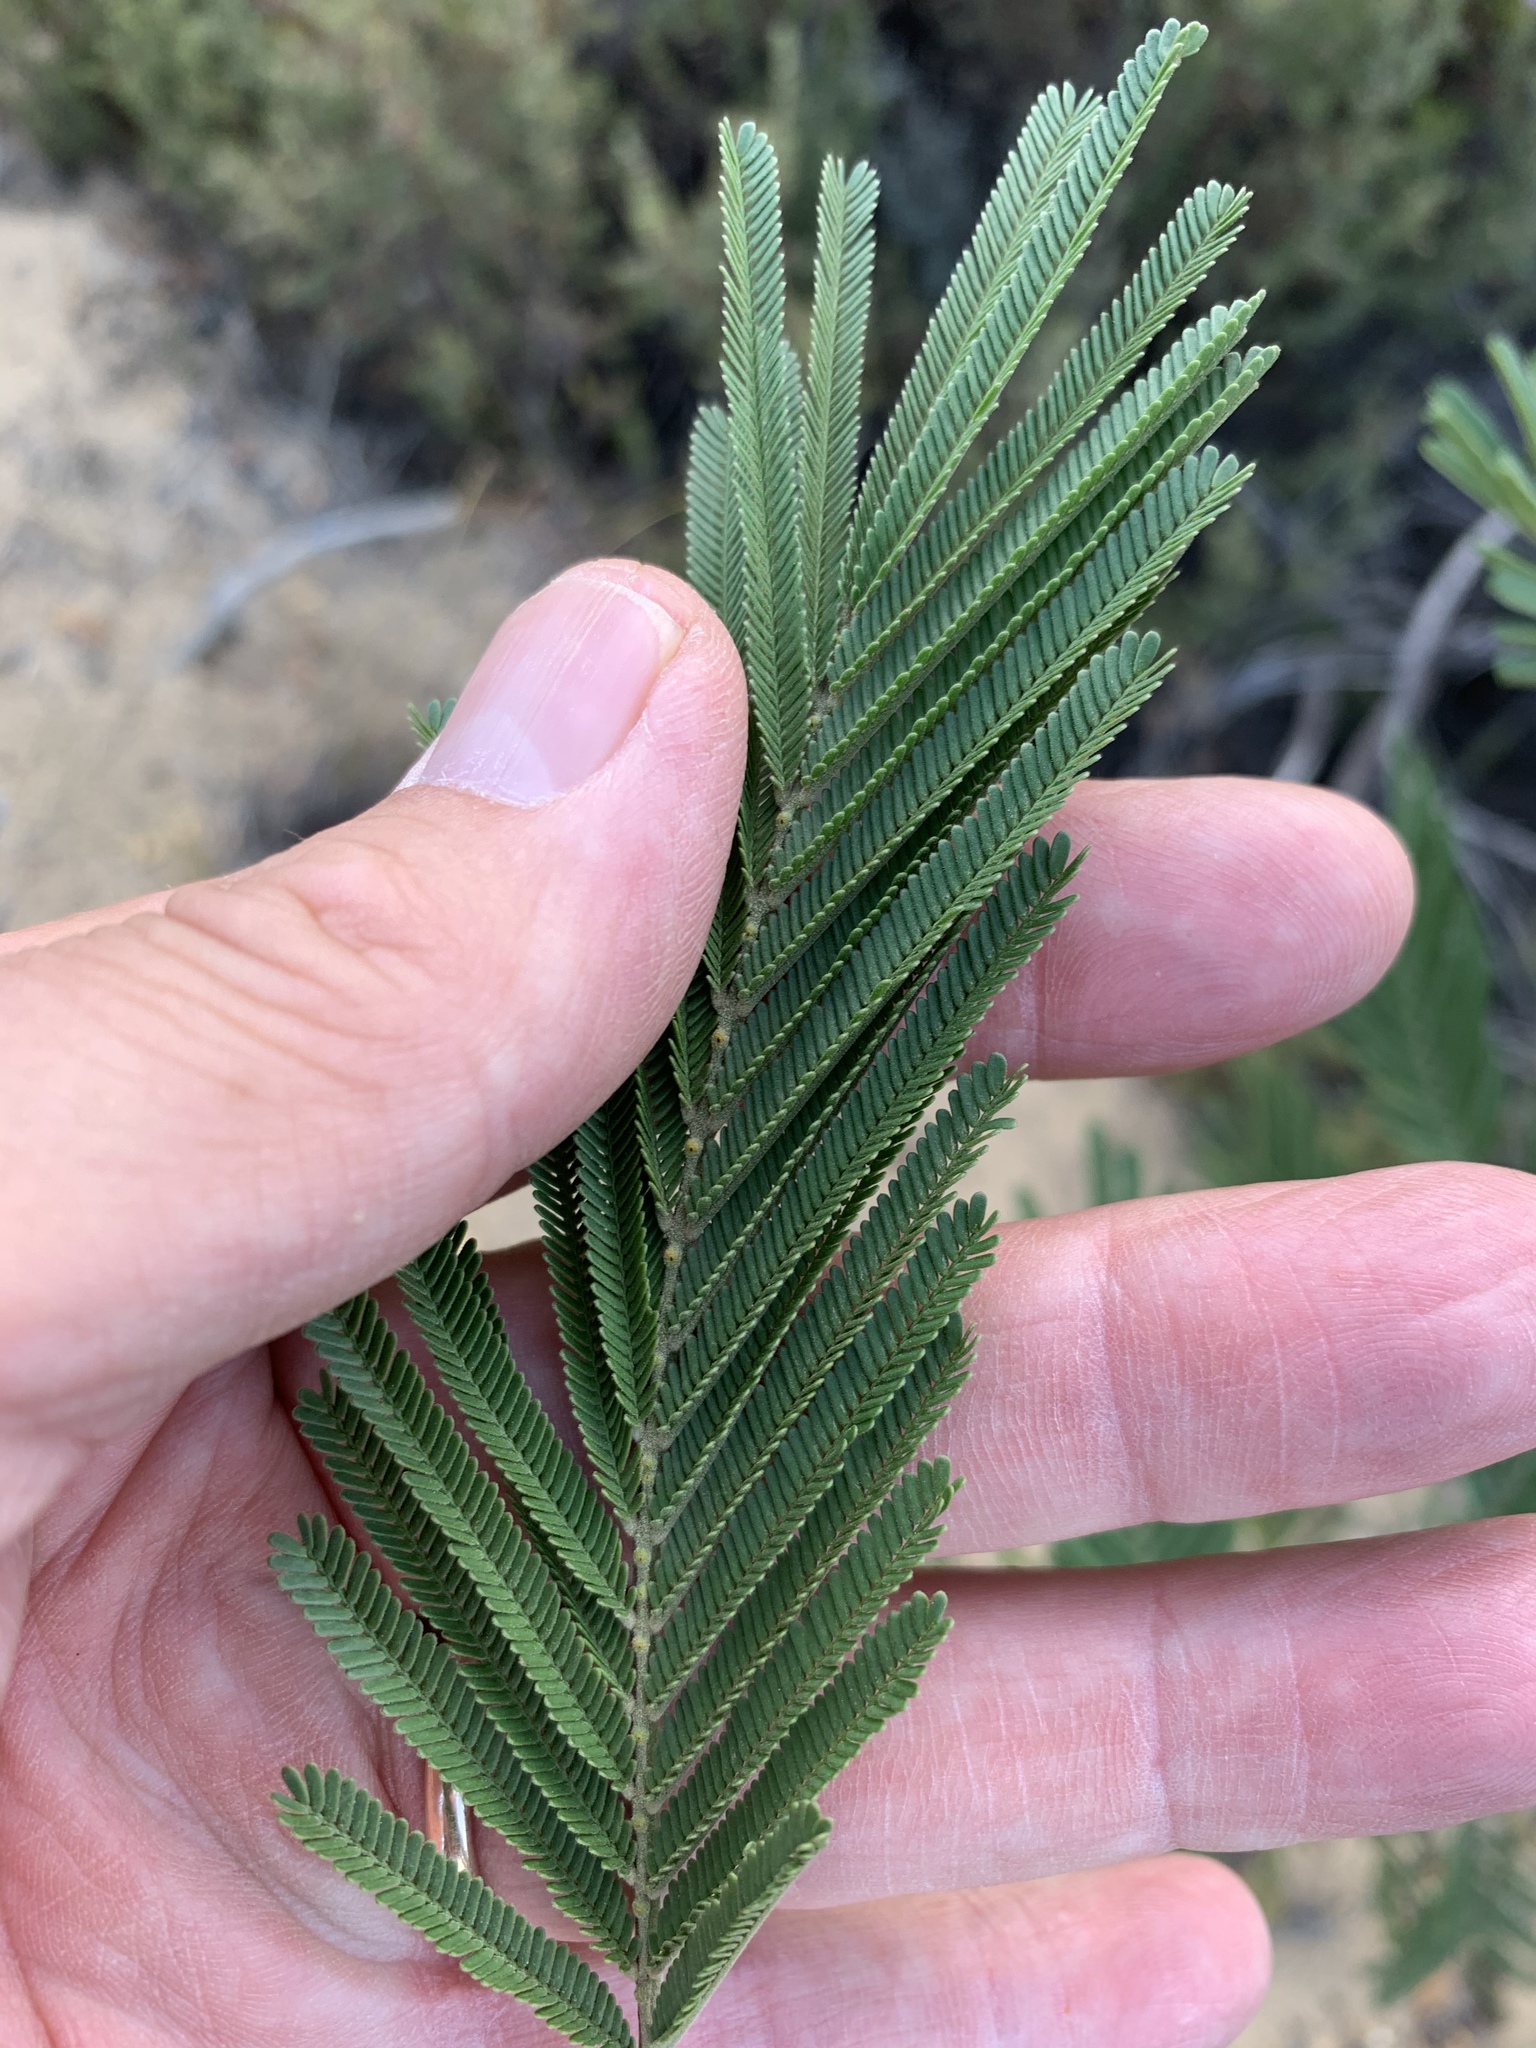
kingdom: Plantae
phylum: Tracheophyta
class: Magnoliopsida
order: Fabales
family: Fabaceae
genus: Acacia
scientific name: Acacia mearnsii
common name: Black wattle
